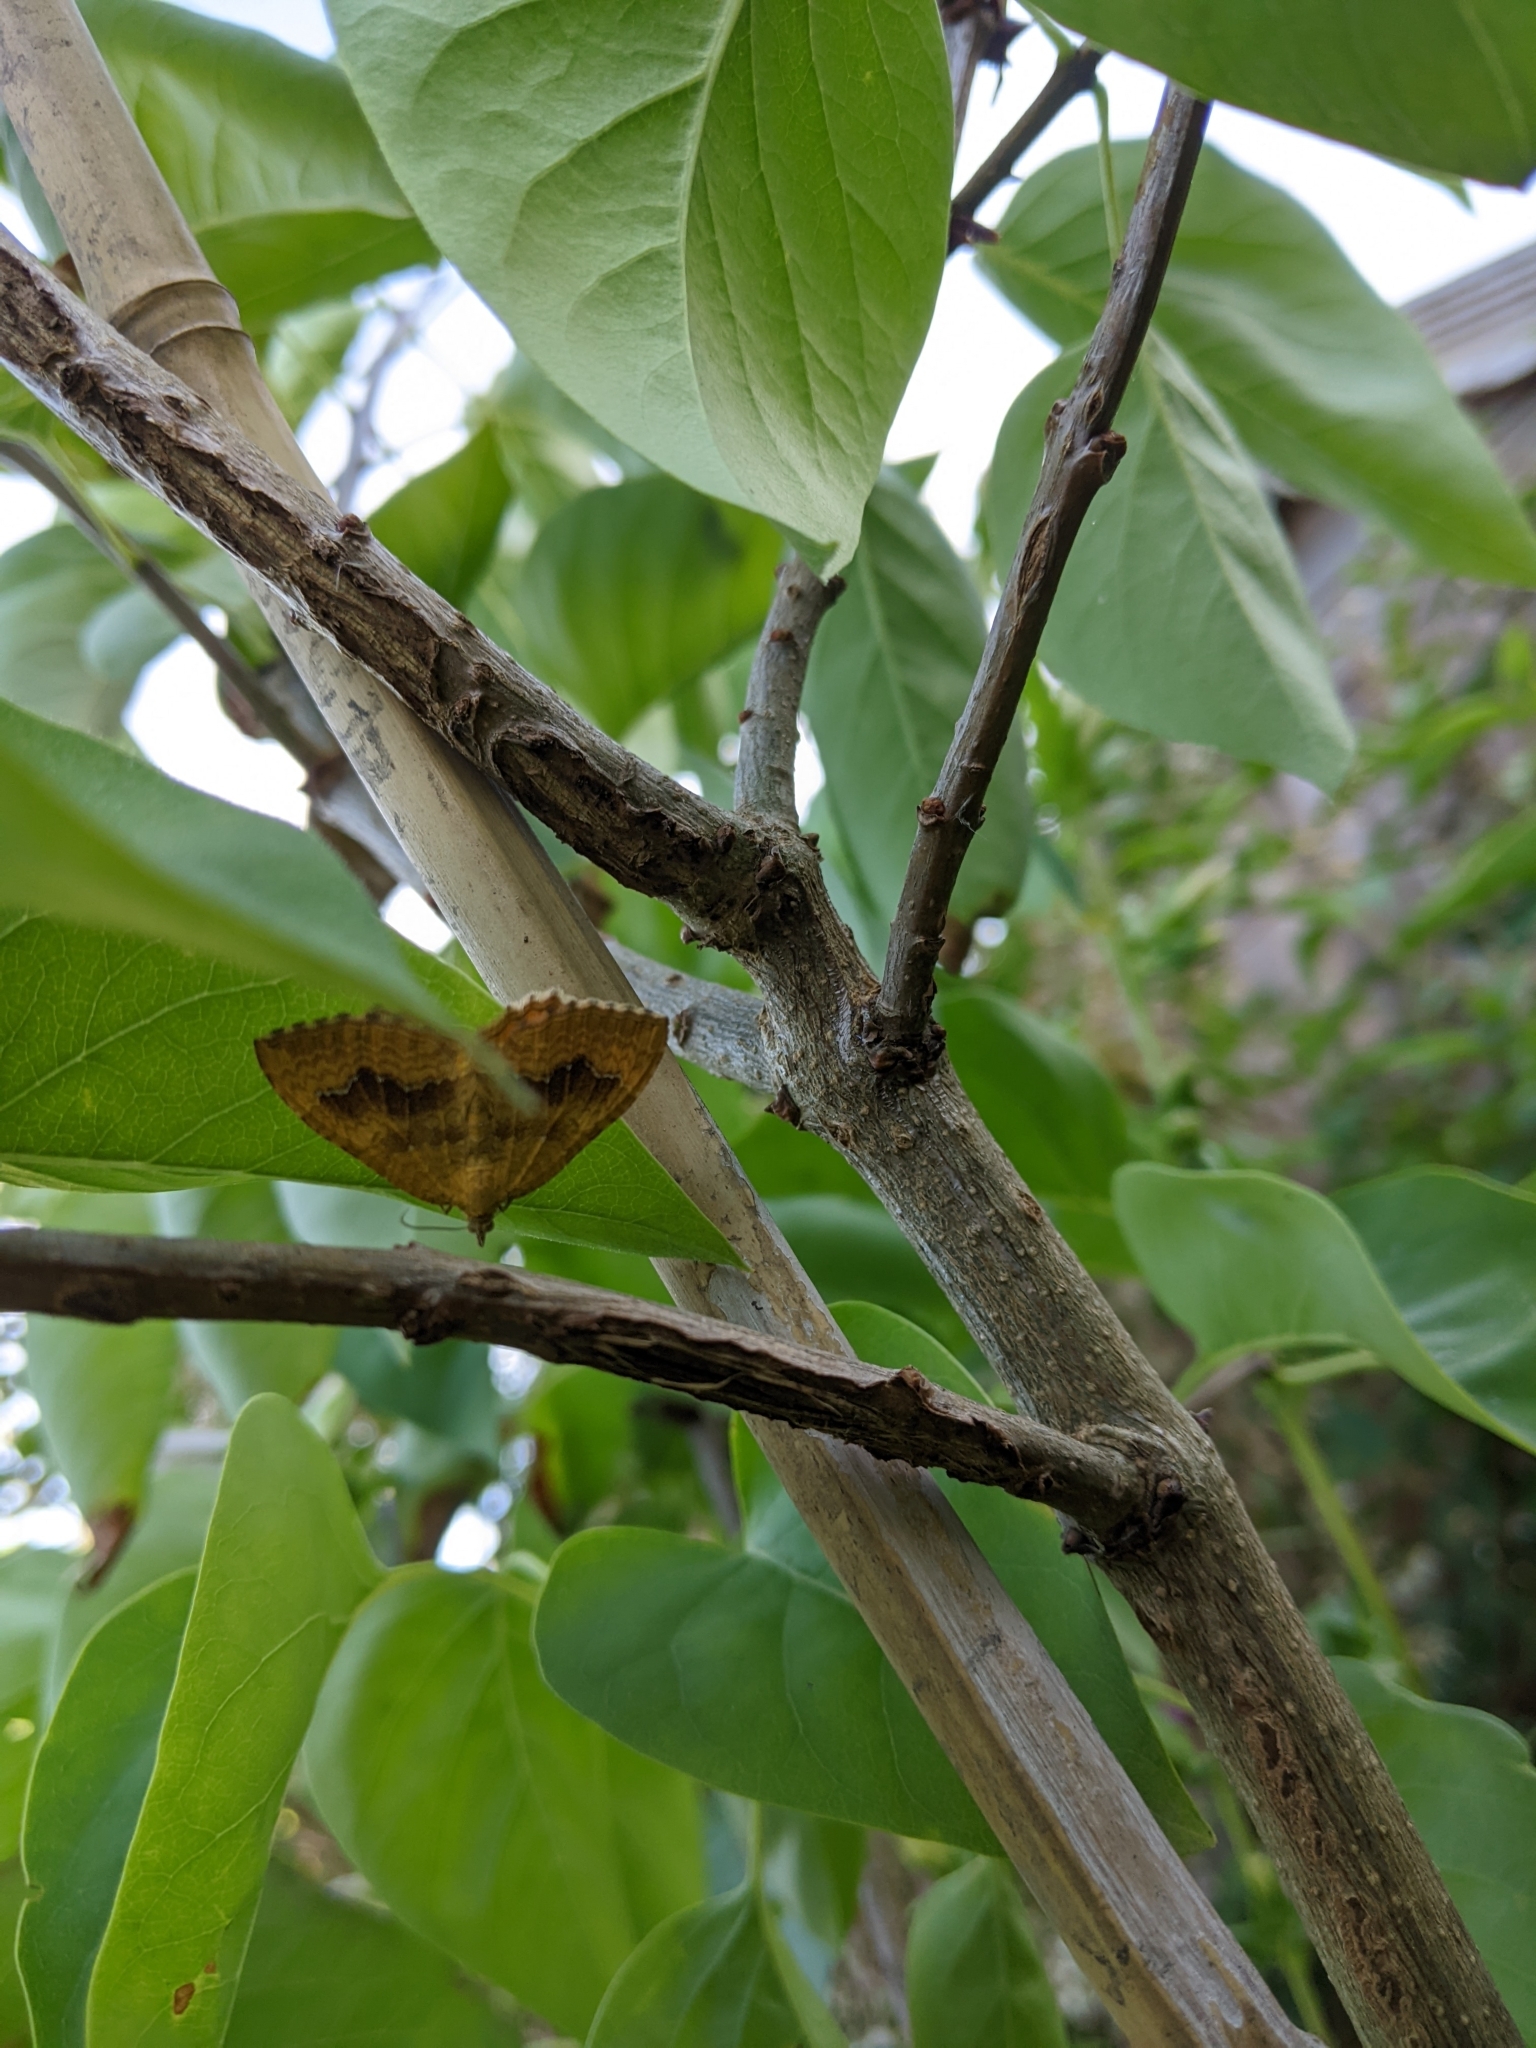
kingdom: Animalia
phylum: Arthropoda
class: Insecta
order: Lepidoptera
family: Geometridae
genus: Camptogramma
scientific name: Camptogramma bilineata
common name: Yellow shell
